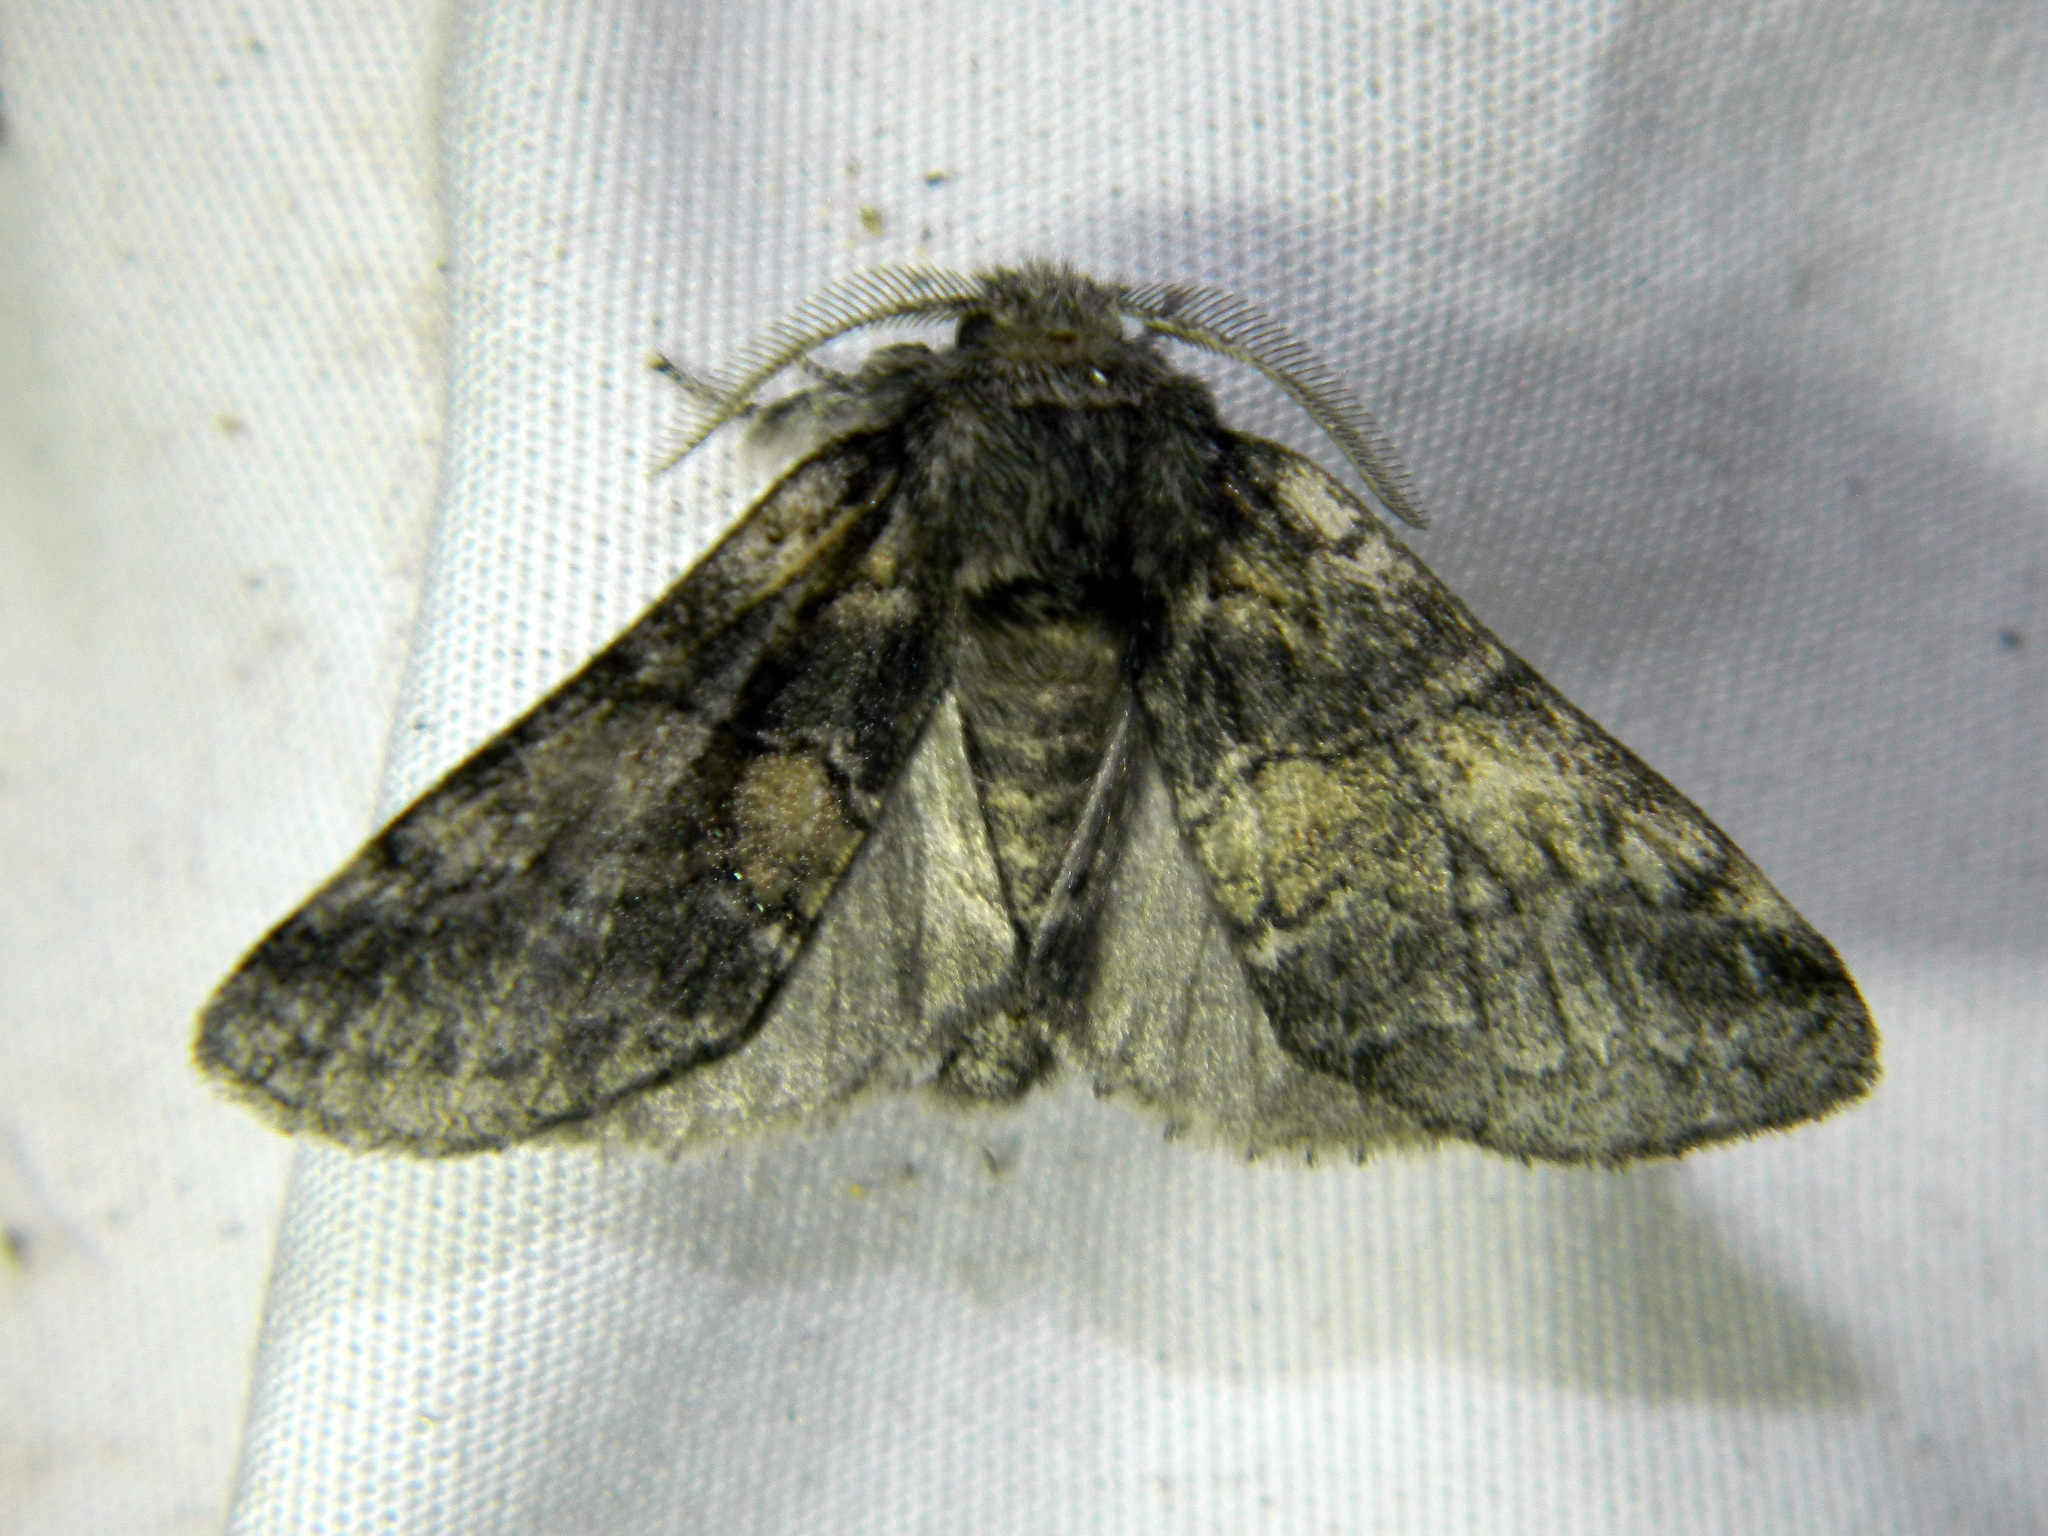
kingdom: Animalia
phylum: Arthropoda
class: Insecta
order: Lepidoptera
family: Notodontidae
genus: Gluphisia
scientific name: Gluphisia septentrionis
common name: Common gluphisia
